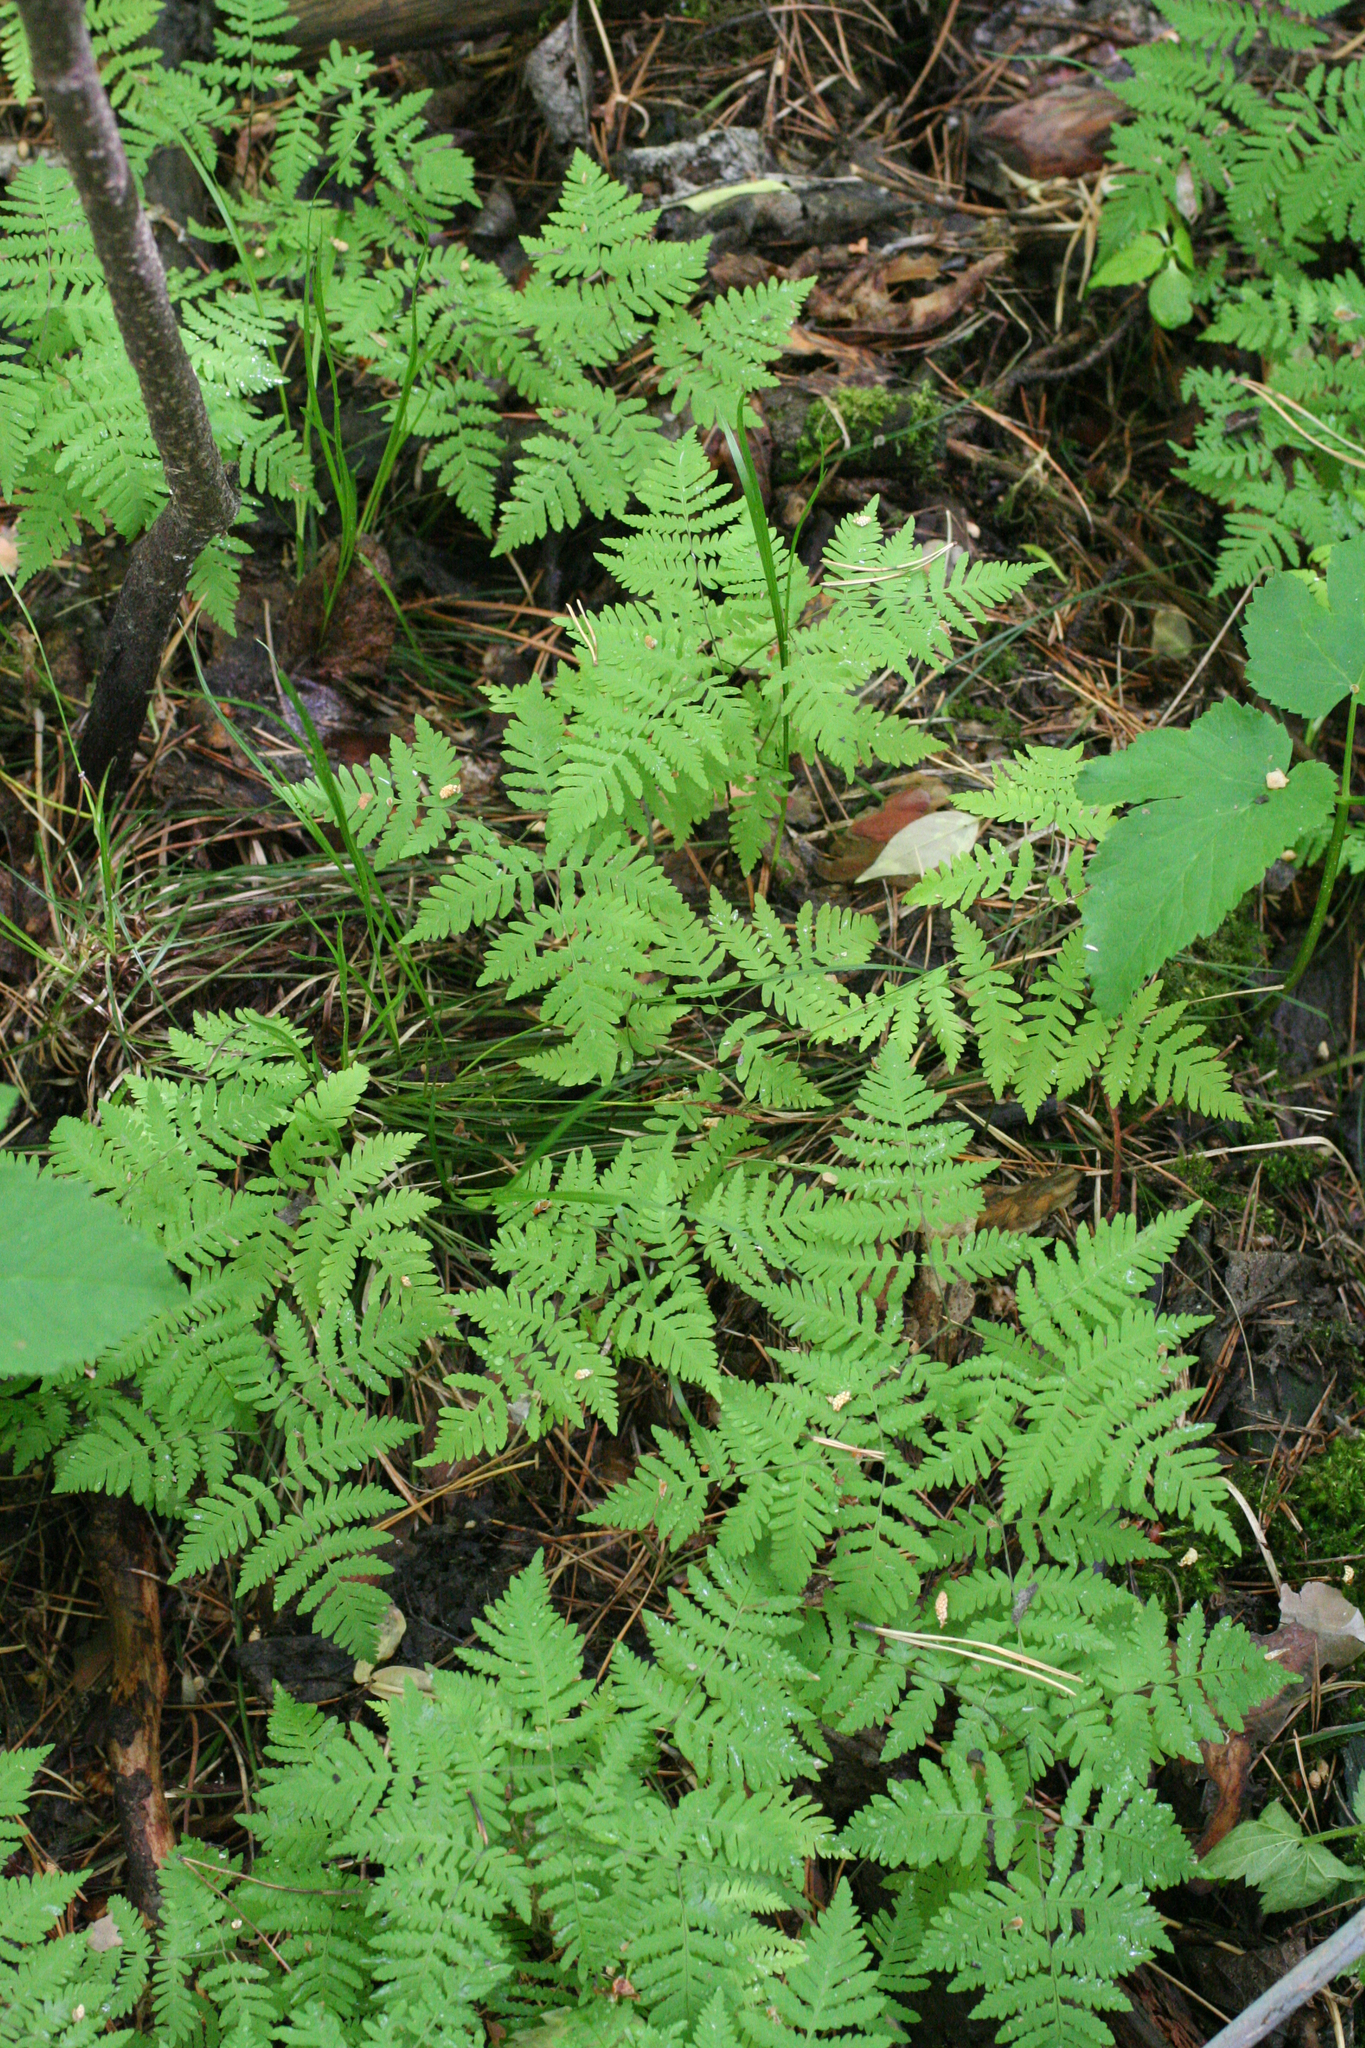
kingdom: Plantae
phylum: Tracheophyta
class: Polypodiopsida
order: Polypodiales
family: Cystopteridaceae
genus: Gymnocarpium
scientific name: Gymnocarpium dryopteris
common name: Oak fern
